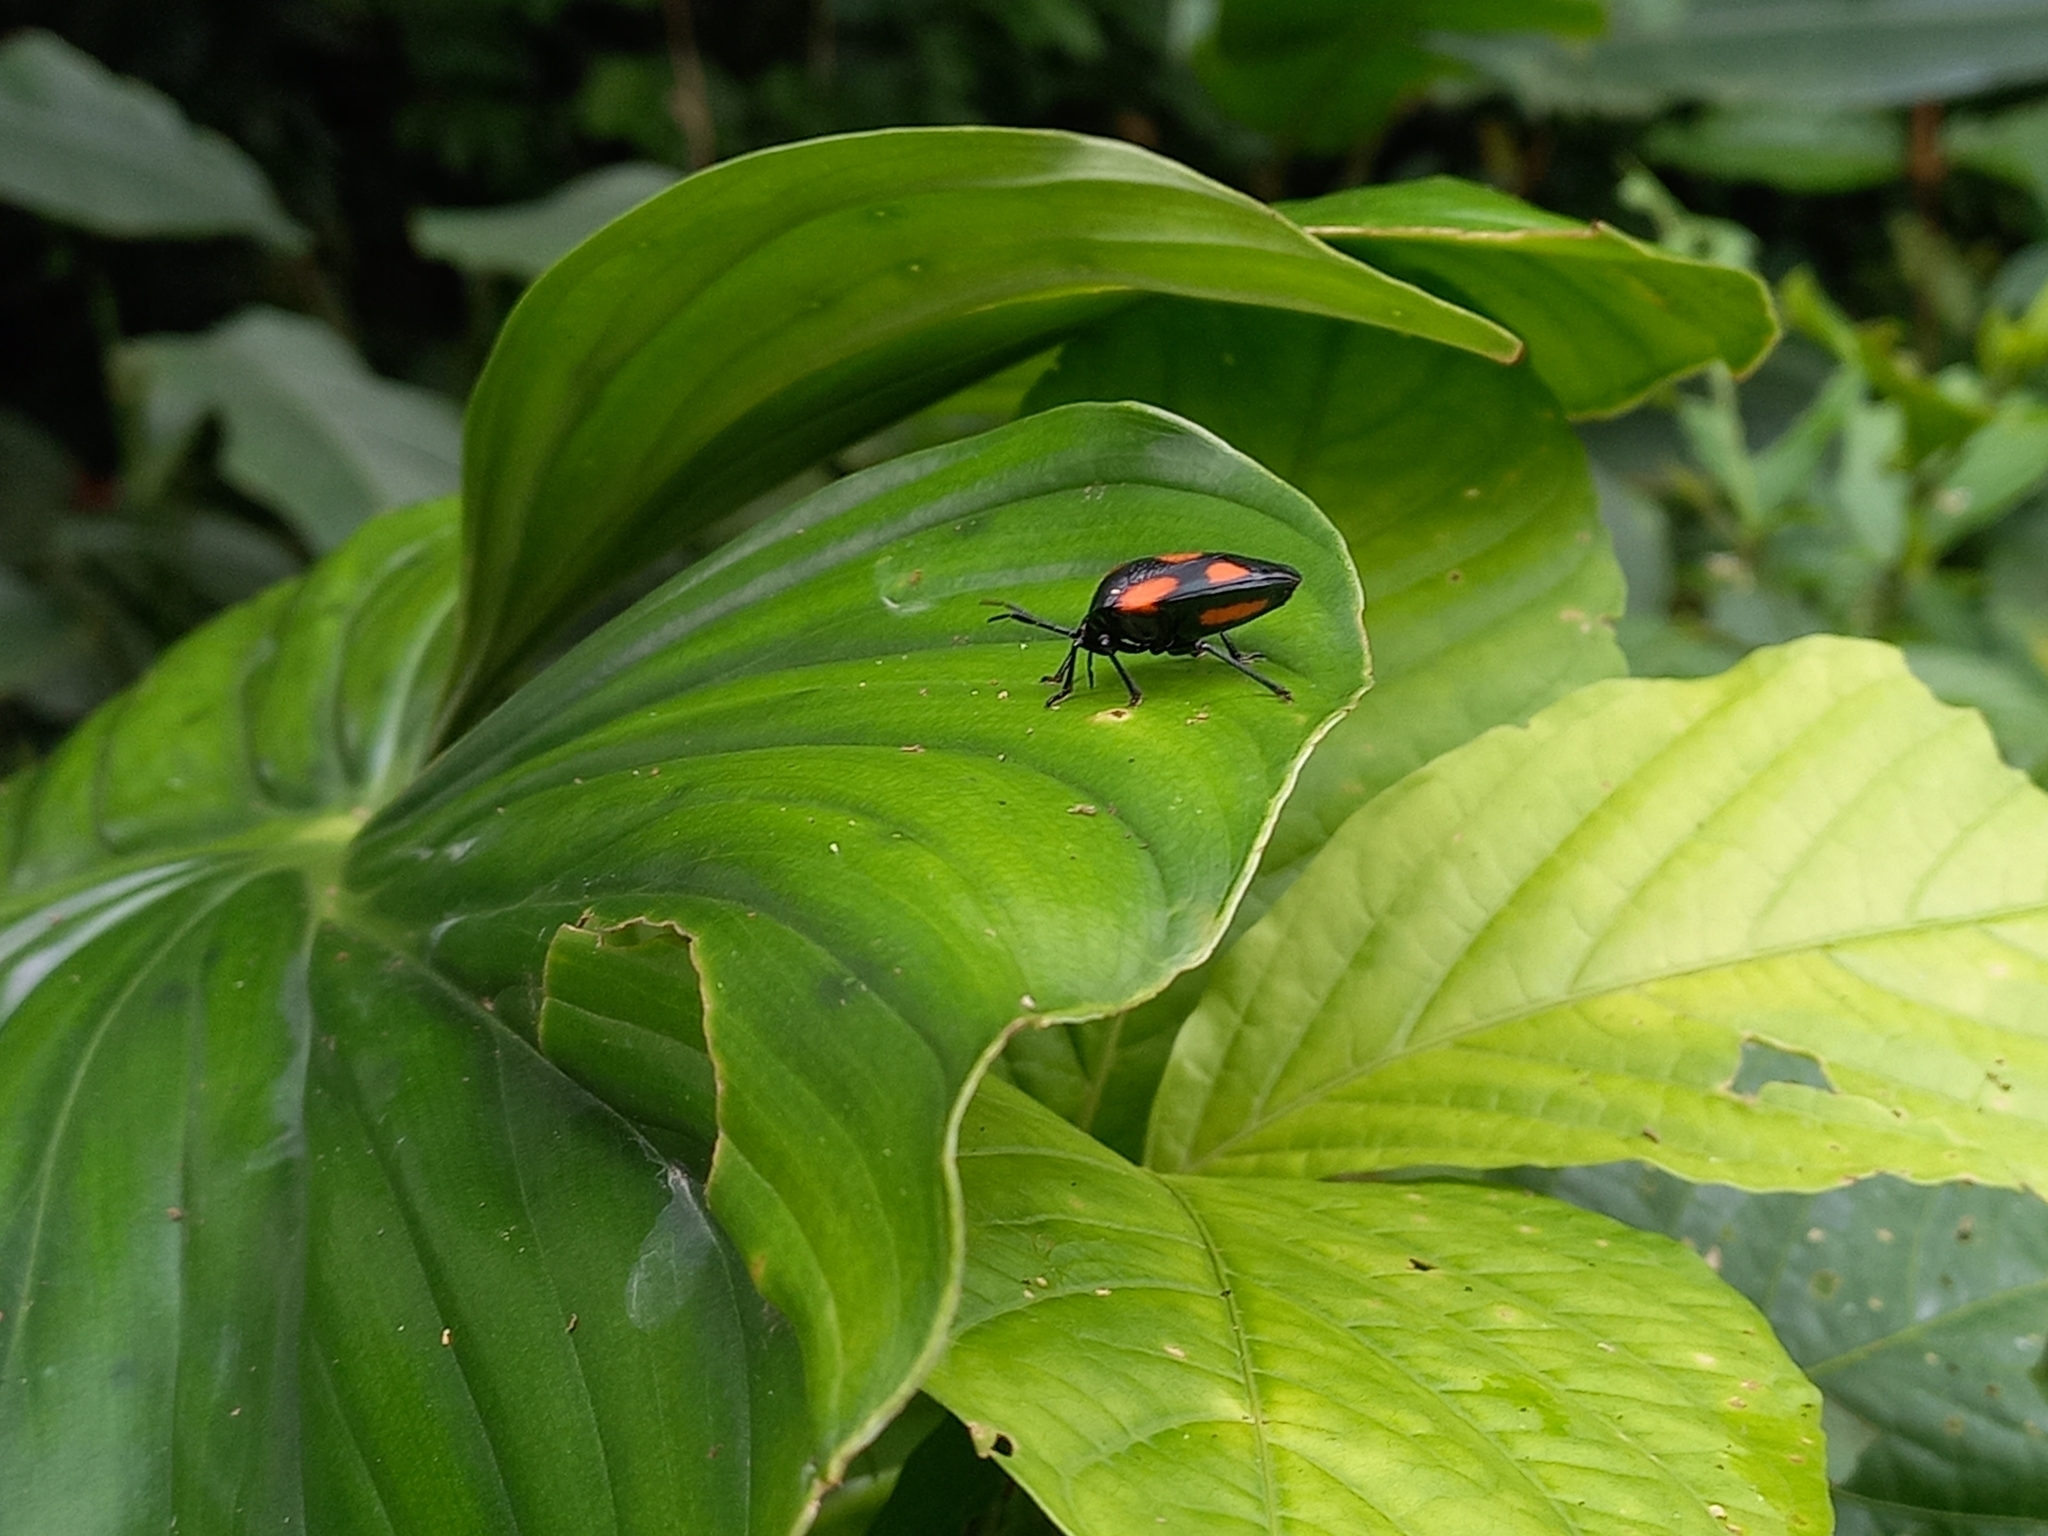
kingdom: Animalia
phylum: Arthropoda
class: Insecta
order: Hemiptera
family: Pentatomidae
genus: Brachystethus
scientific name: Brachystethus rubromaculatus
